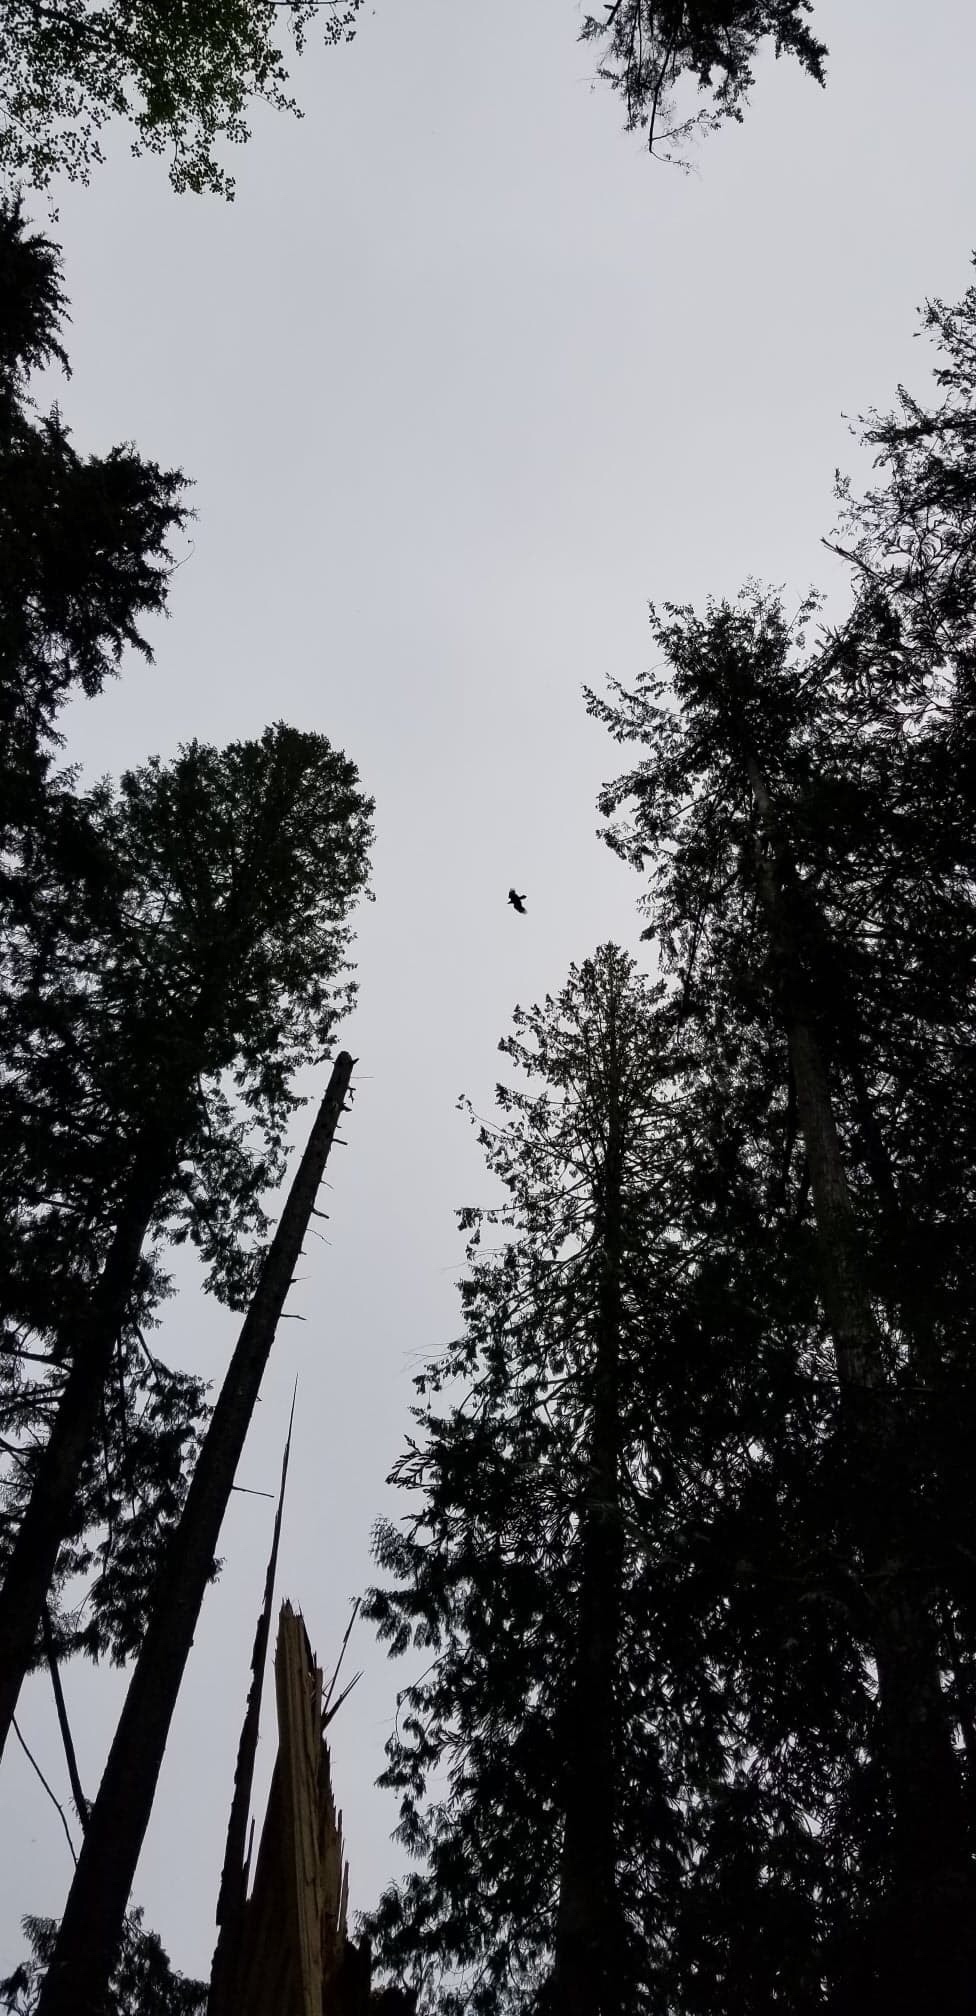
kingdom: Animalia
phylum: Chordata
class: Aves
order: Passeriformes
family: Corvidae
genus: Corvus
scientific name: Corvus corax
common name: Common raven
